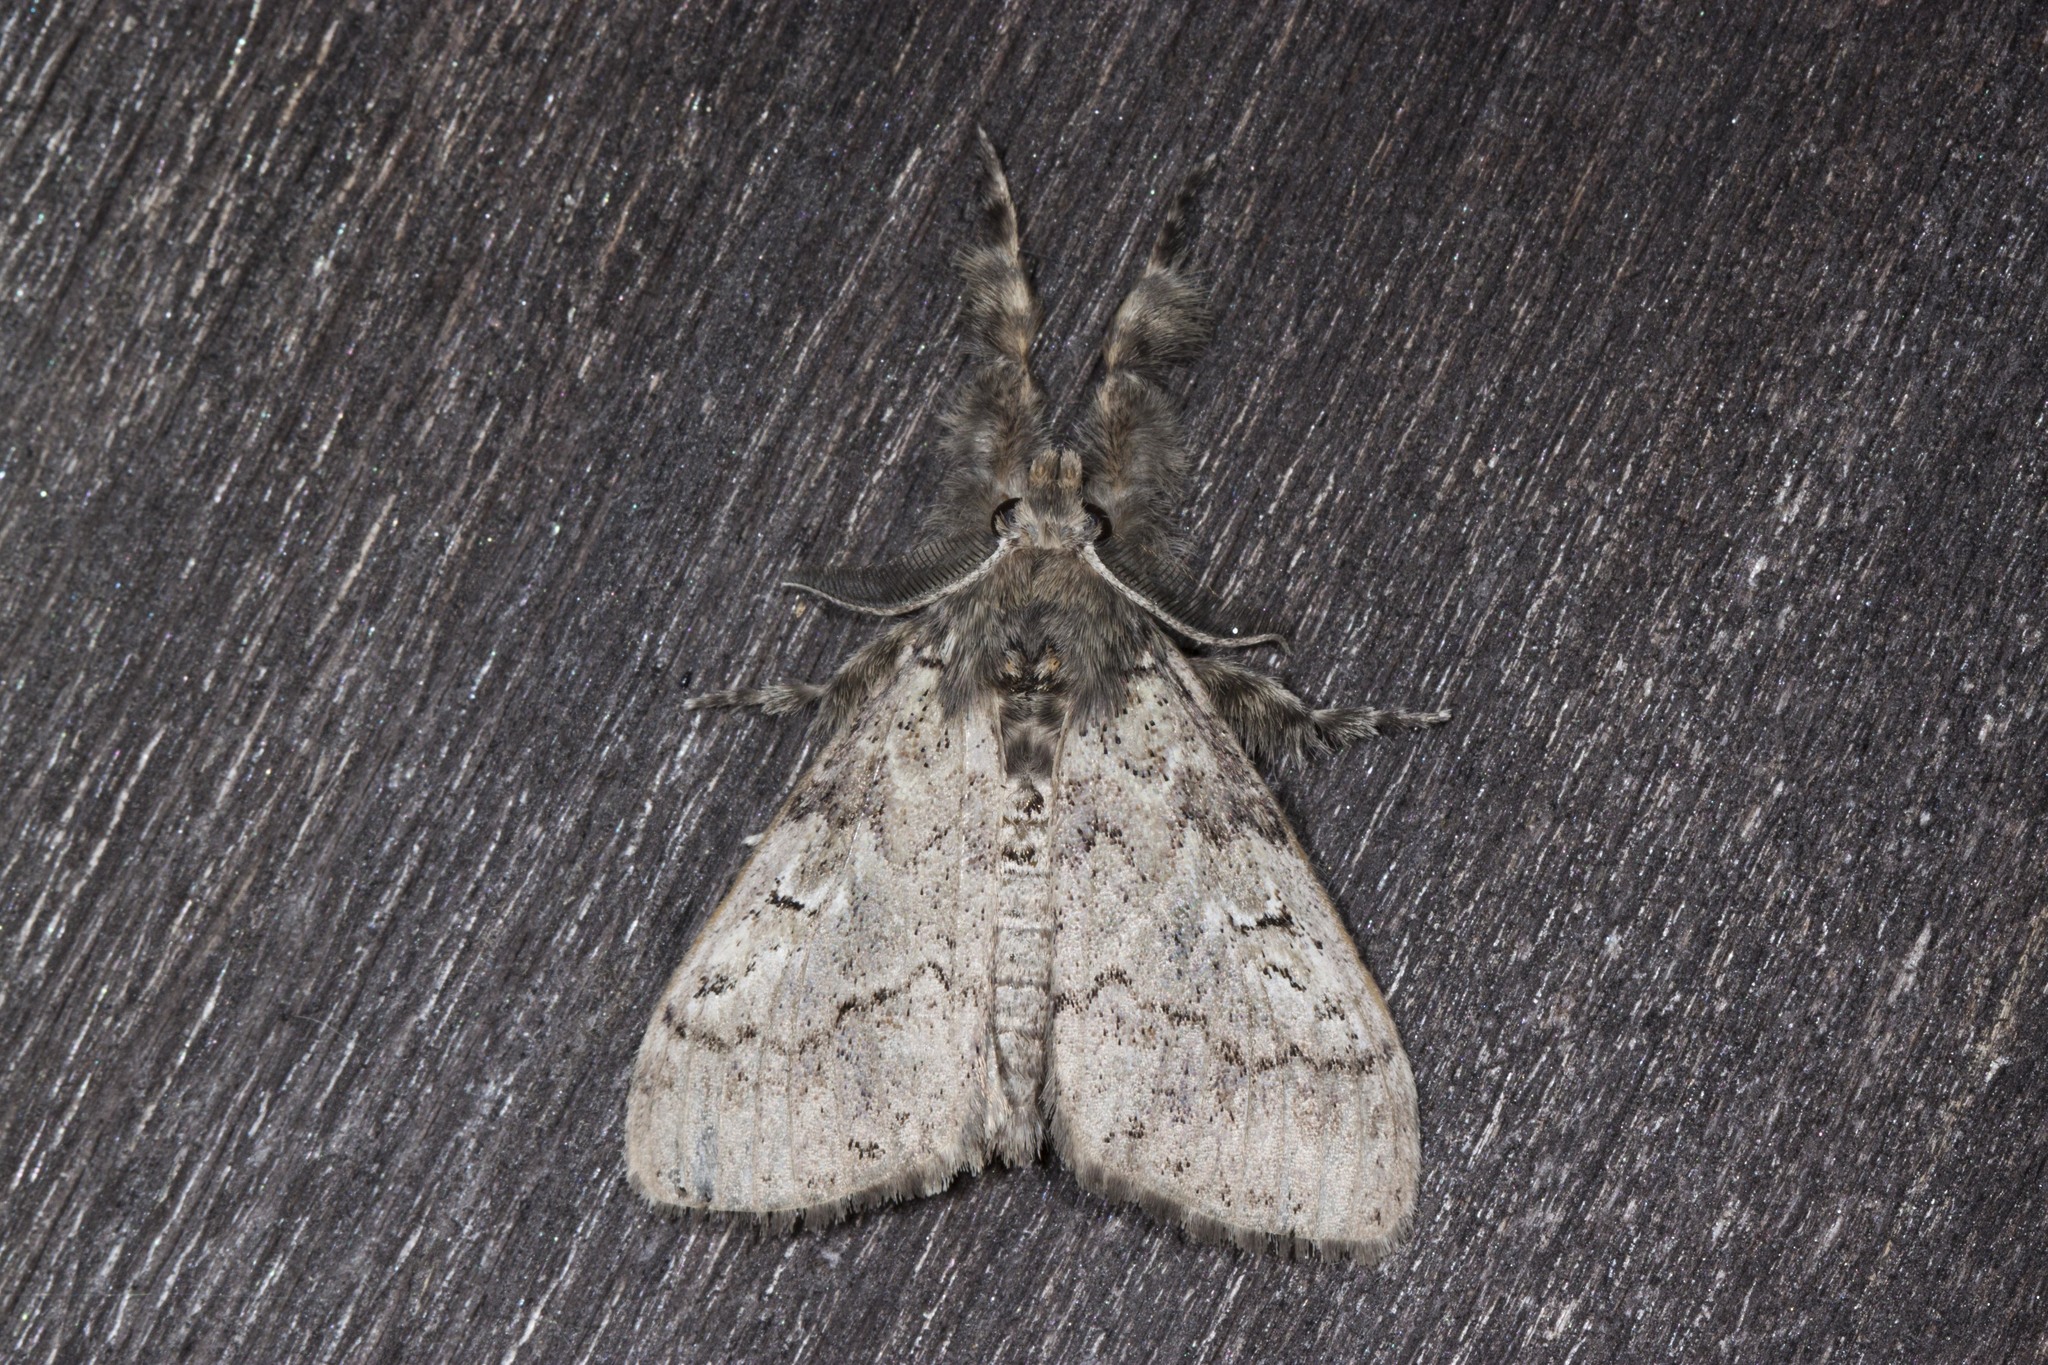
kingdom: Animalia
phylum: Arthropoda
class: Insecta
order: Lepidoptera
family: Erebidae
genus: Dasychira
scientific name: Dasychira vagans
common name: Variable tussock moth
